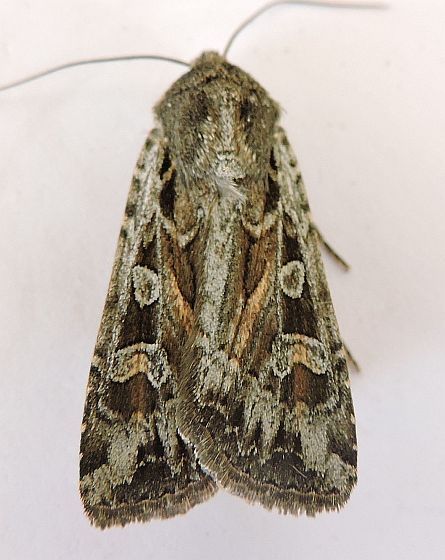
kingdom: Animalia
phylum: Arthropoda
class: Insecta
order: Lepidoptera
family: Noctuidae
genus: Euxoa
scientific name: Euxoa auxiliaris
